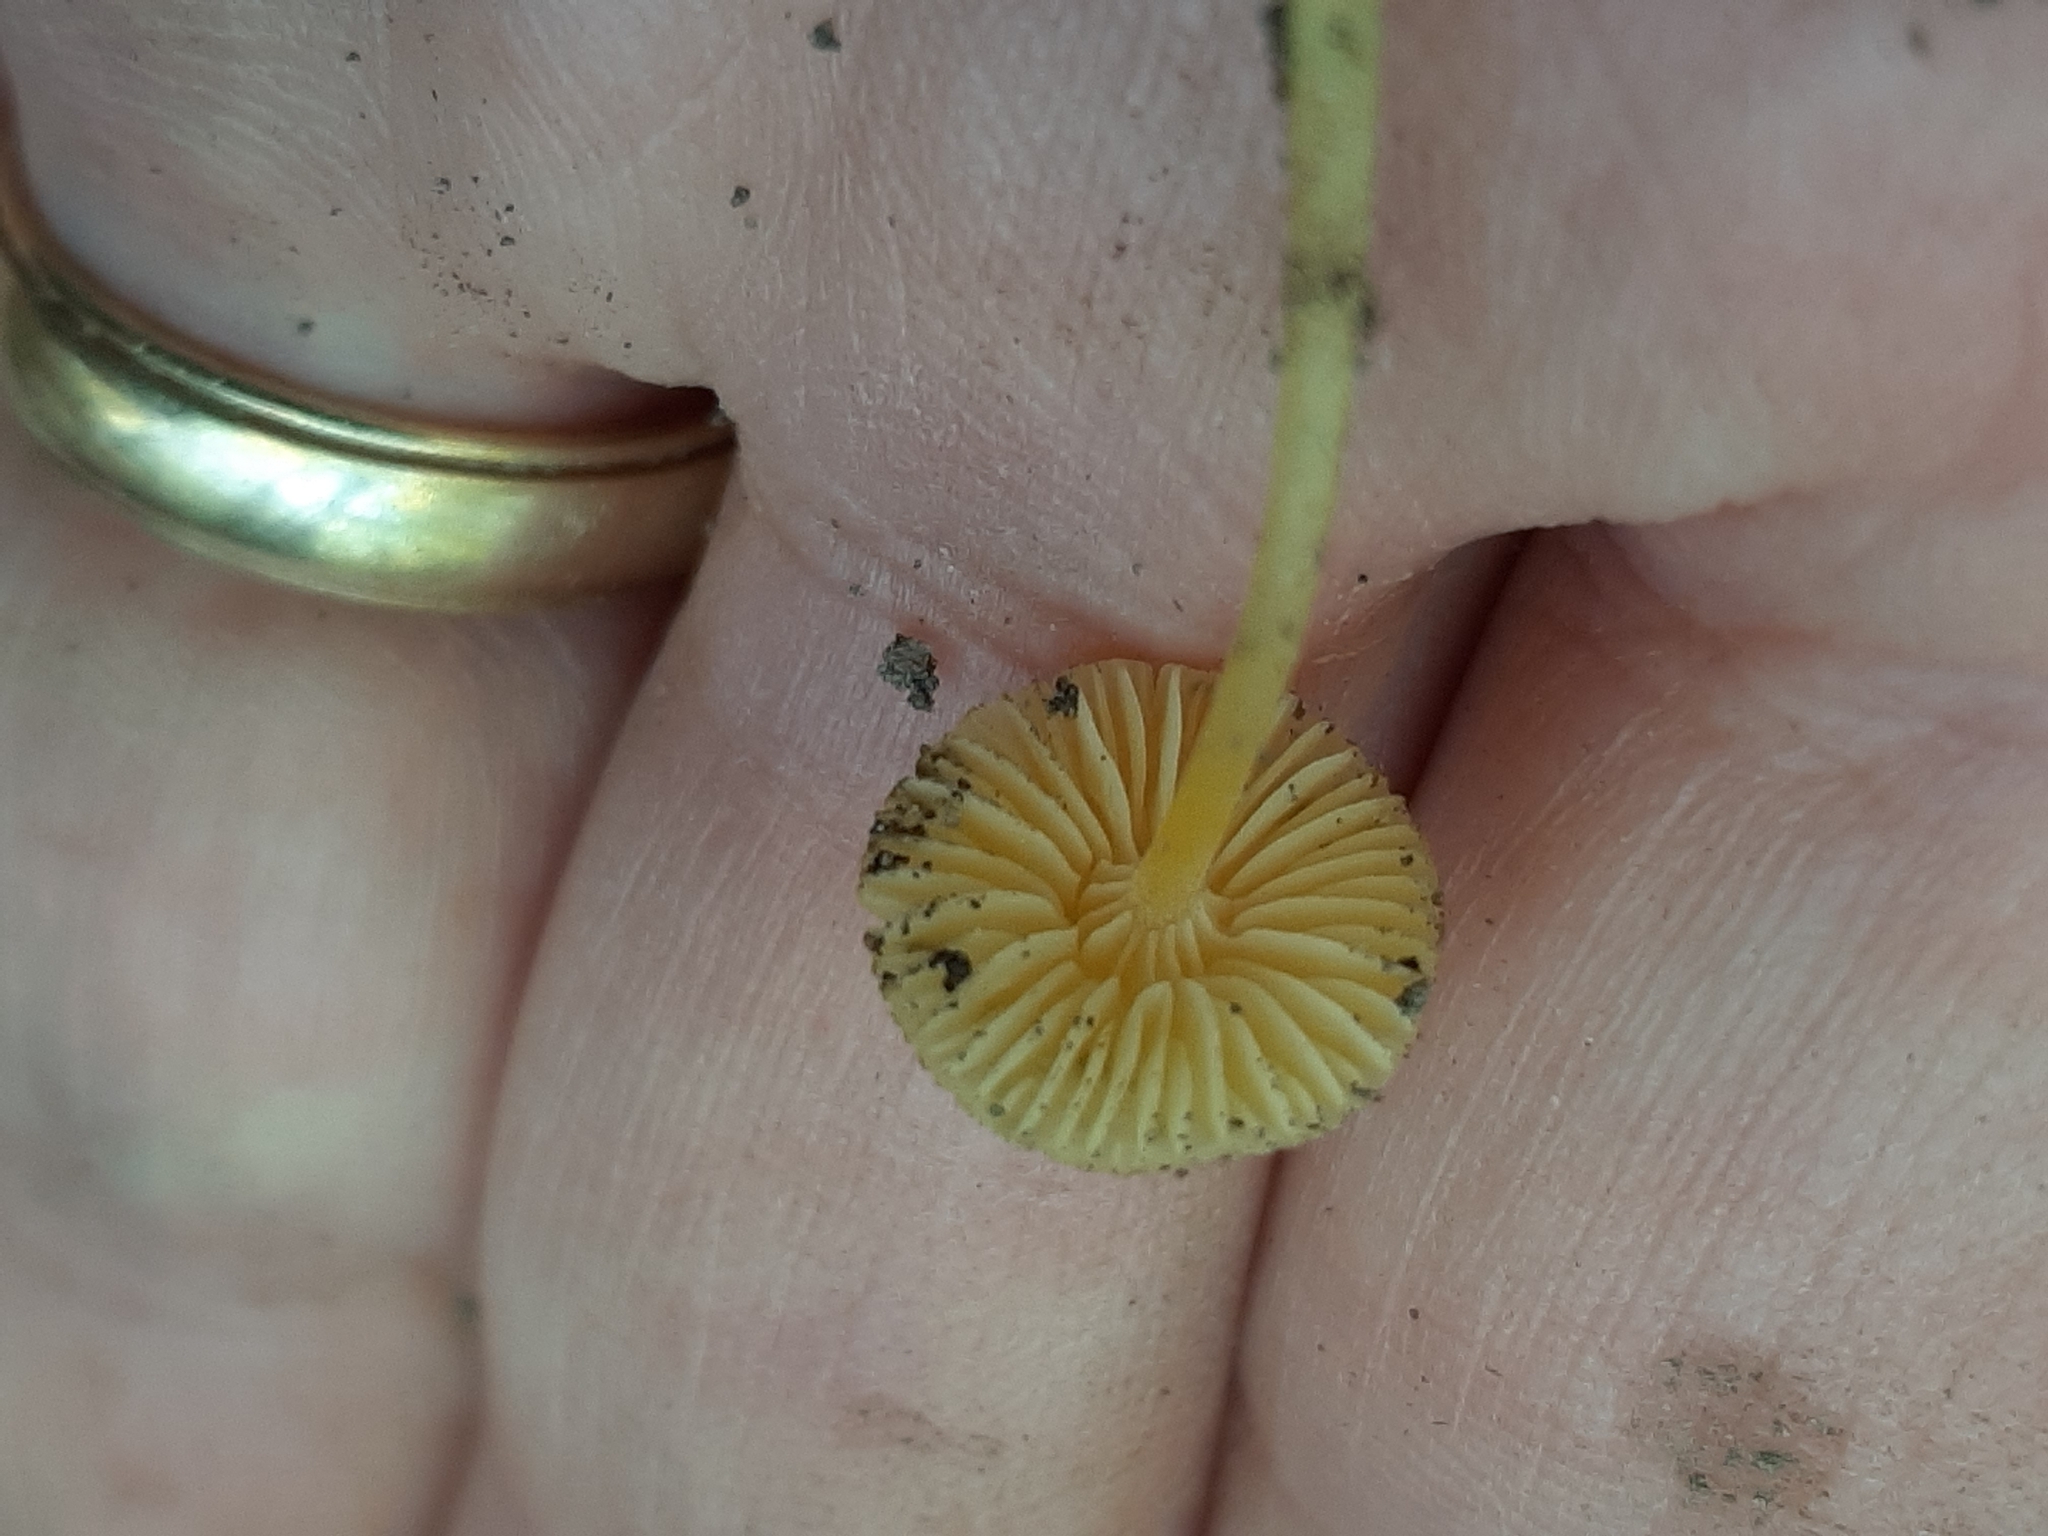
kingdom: Fungi
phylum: Basidiomycota
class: Agaricomycetes
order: Agaricales
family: Mycenaceae
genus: Mycena
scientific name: Mycena crocea
